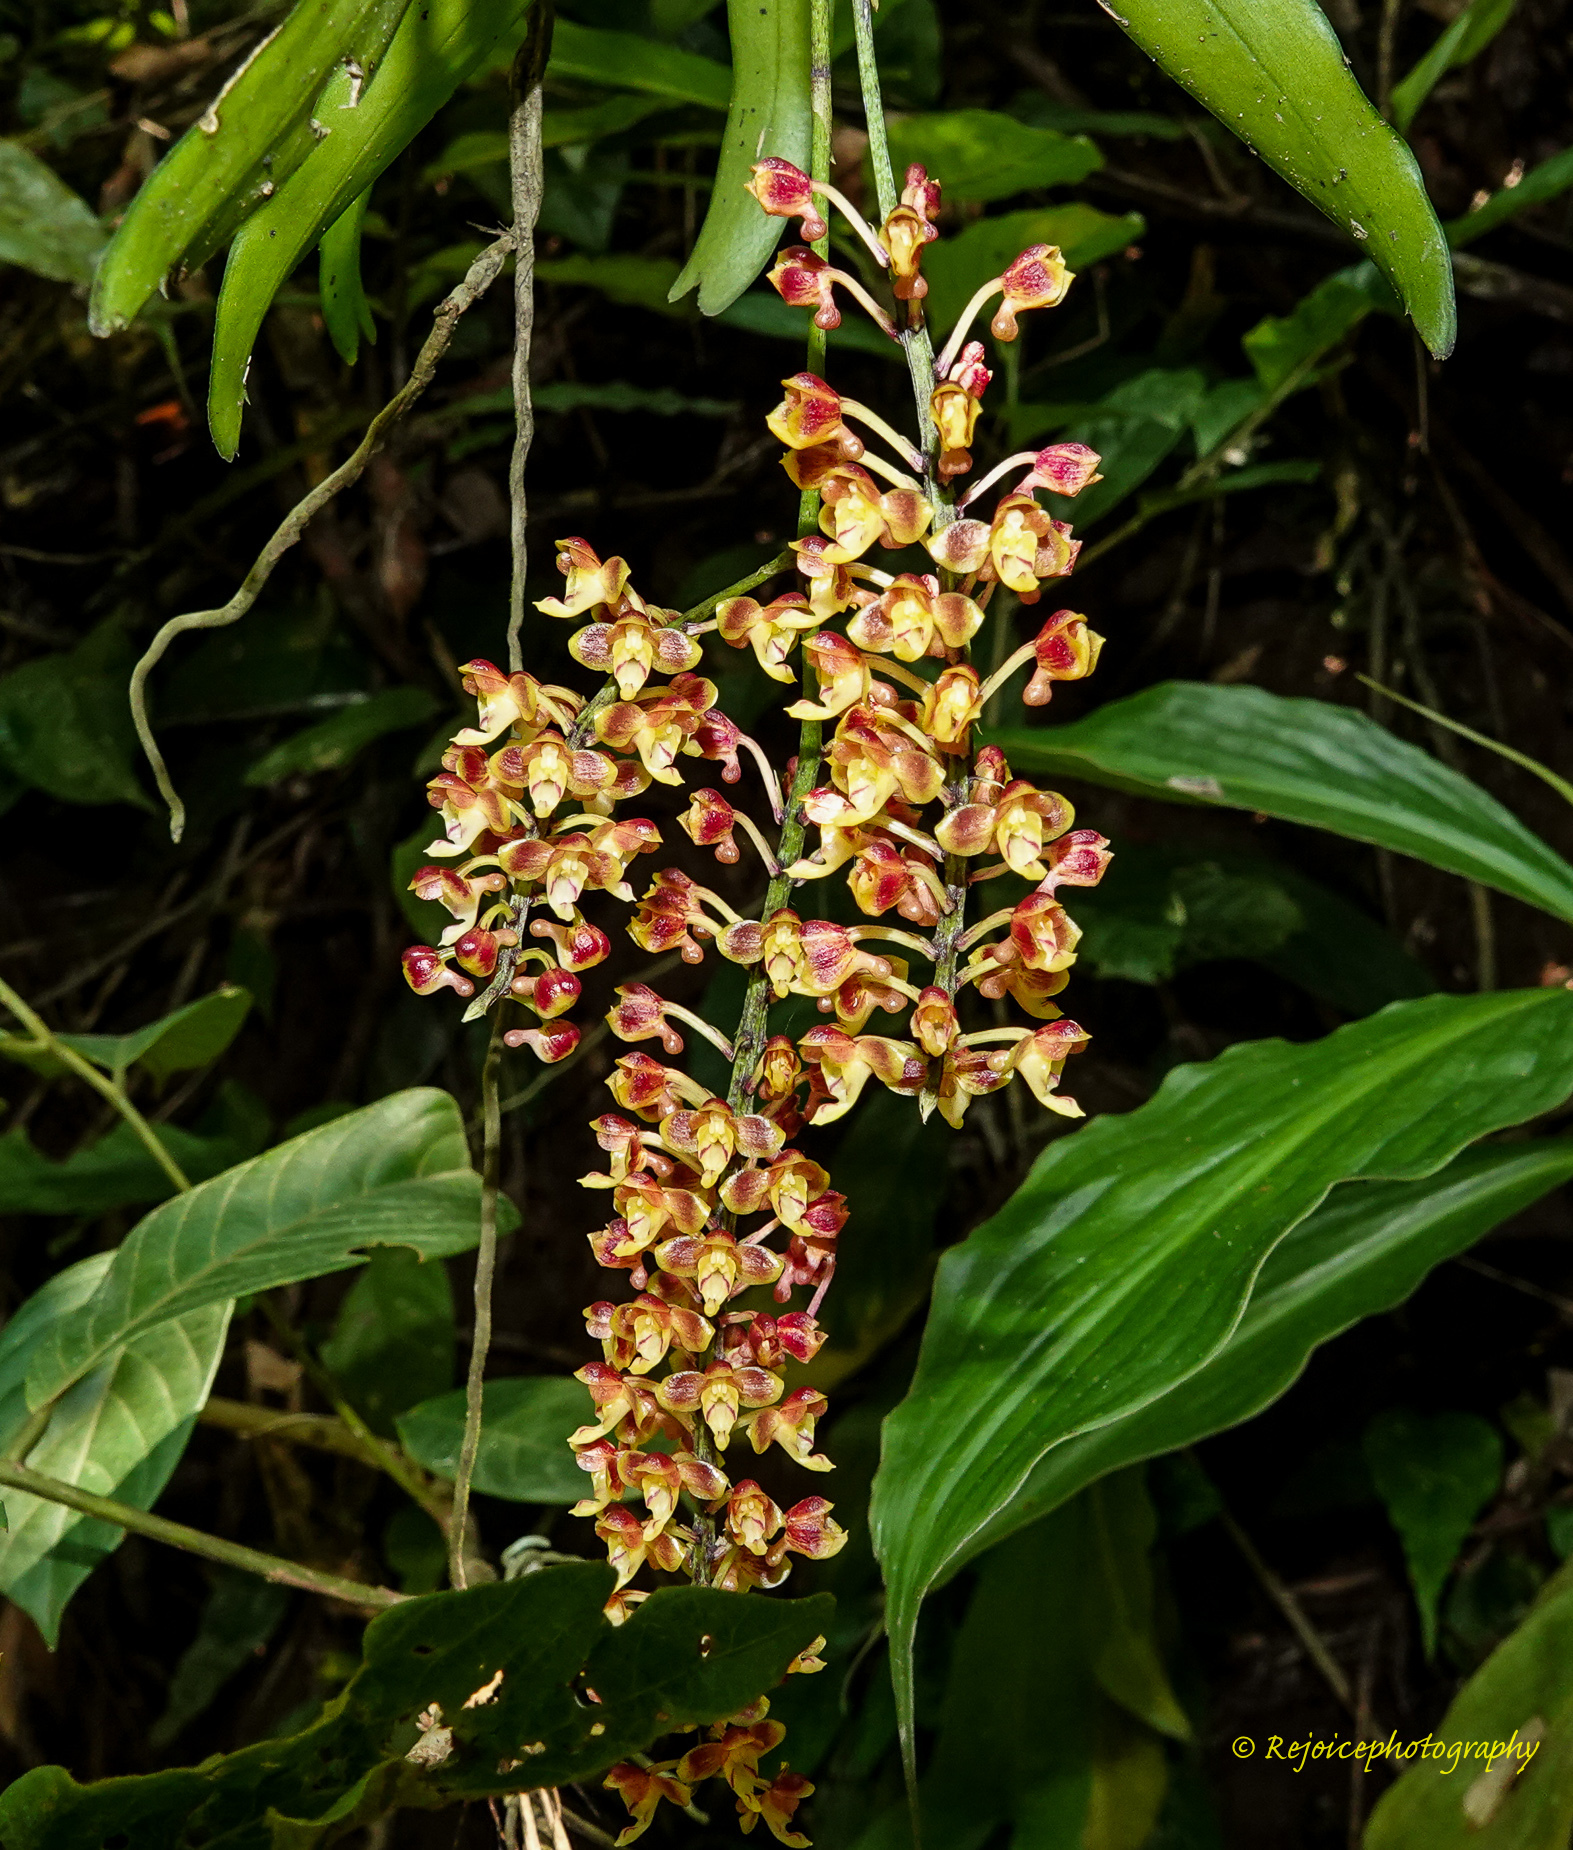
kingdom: Plantae
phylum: Tracheophyta
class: Liliopsida
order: Asparagales
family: Orchidaceae
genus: Robiquetia
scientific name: Robiquetia succisa
